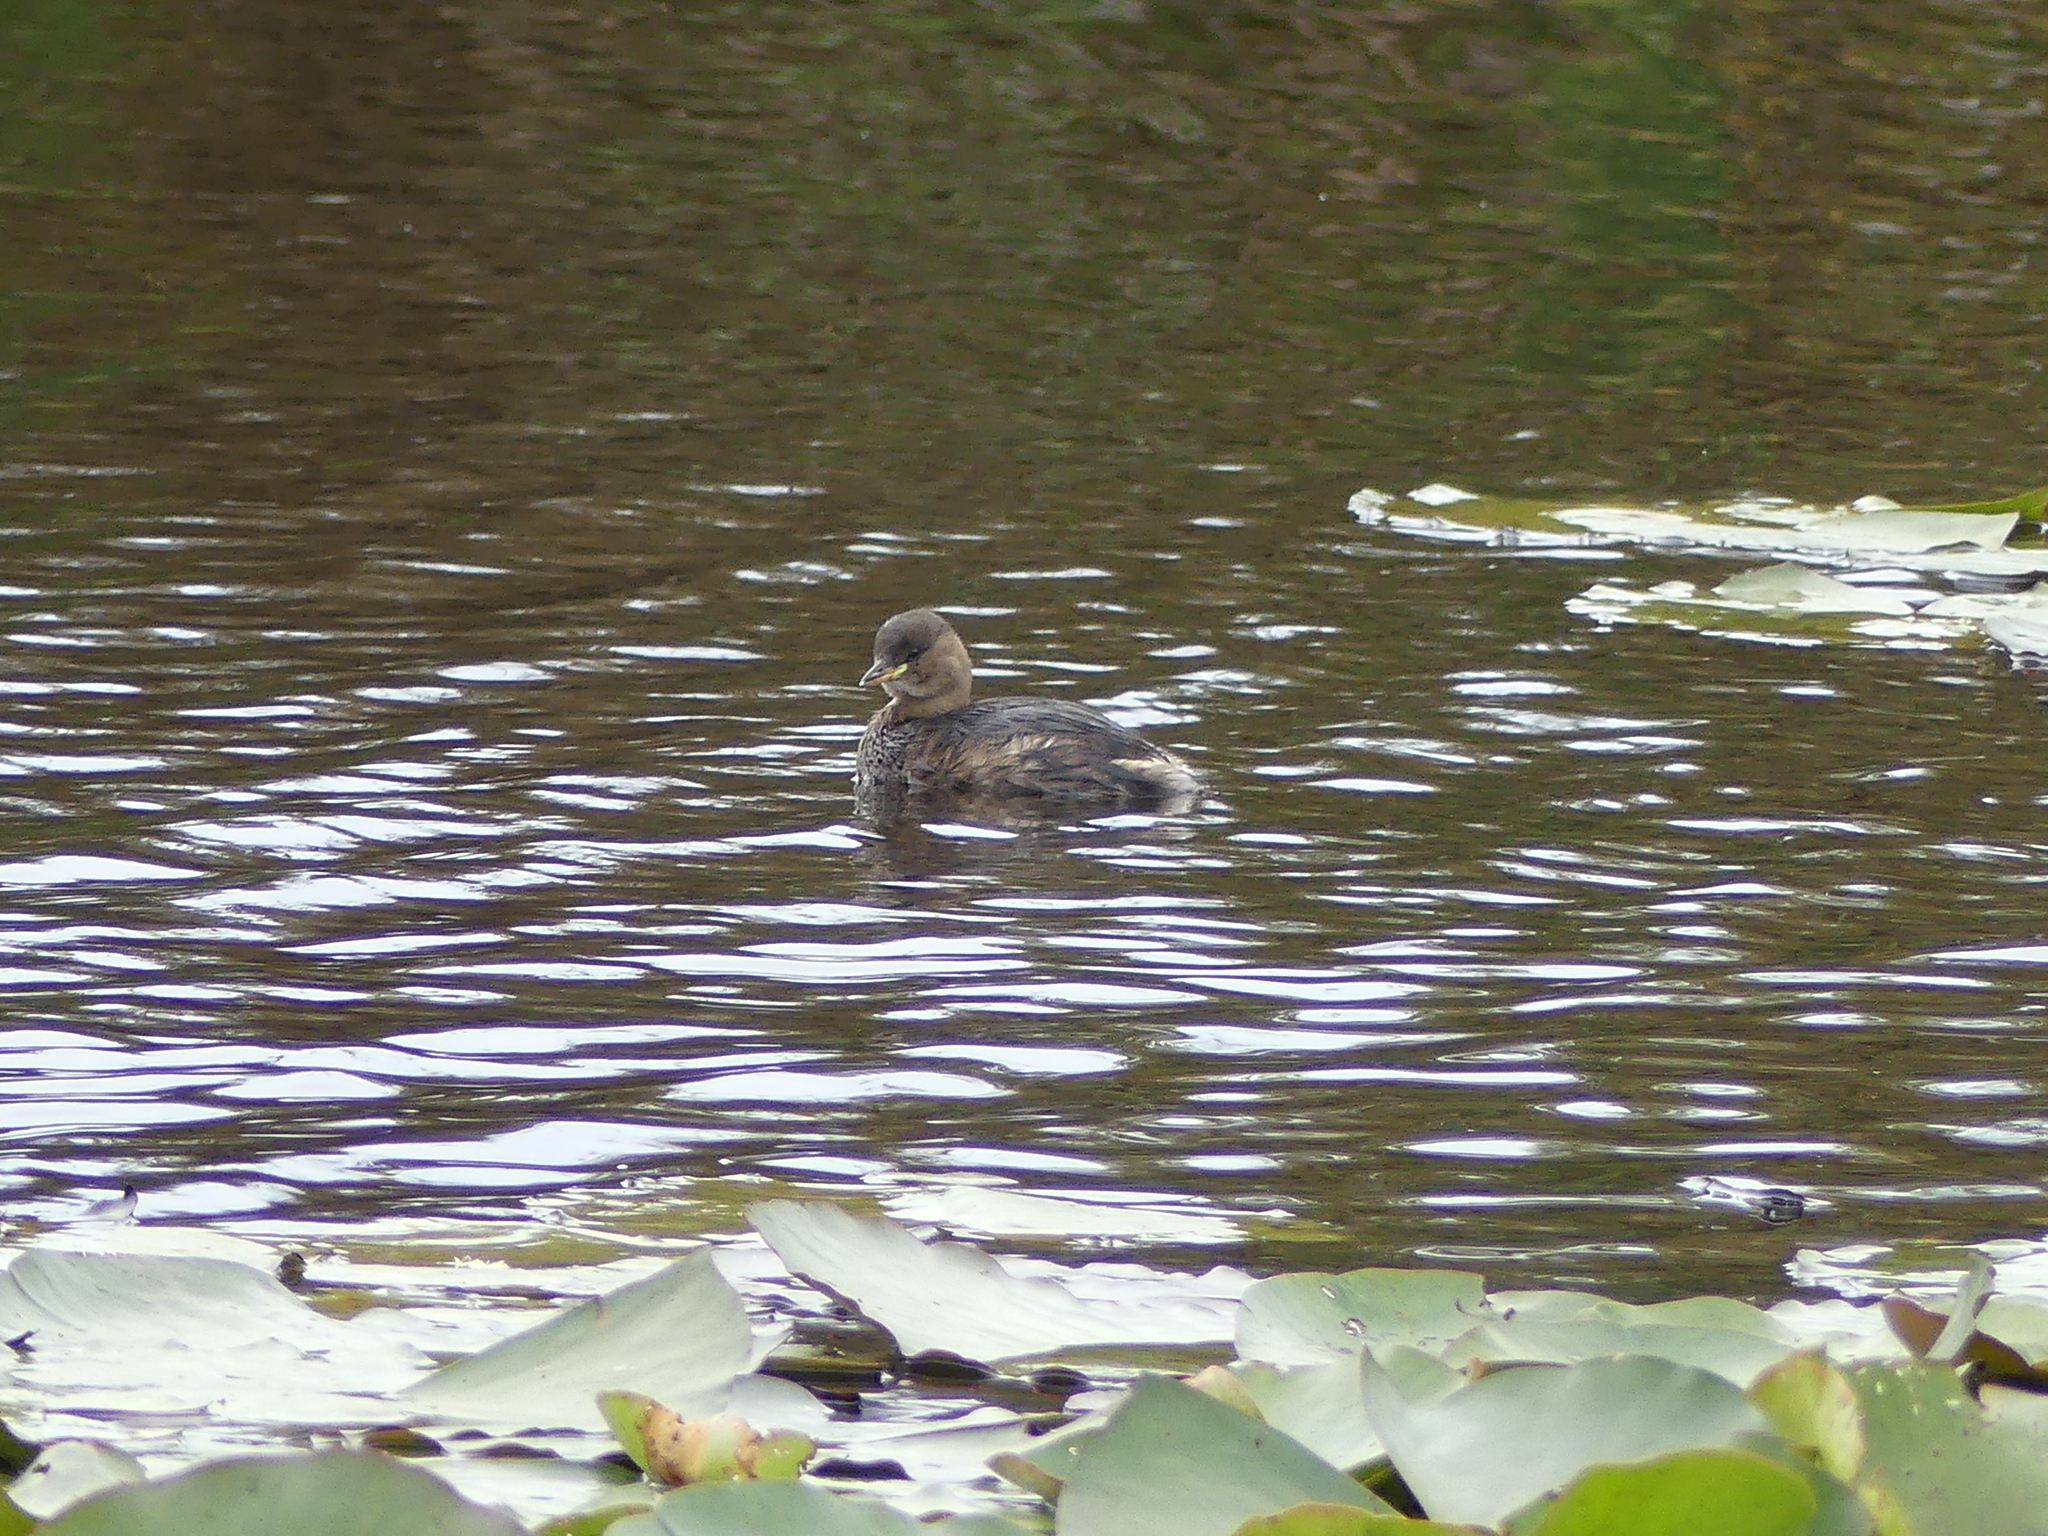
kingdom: Animalia
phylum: Chordata
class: Aves
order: Podicipediformes
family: Podicipedidae
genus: Tachybaptus
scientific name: Tachybaptus ruficollis
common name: Little grebe
